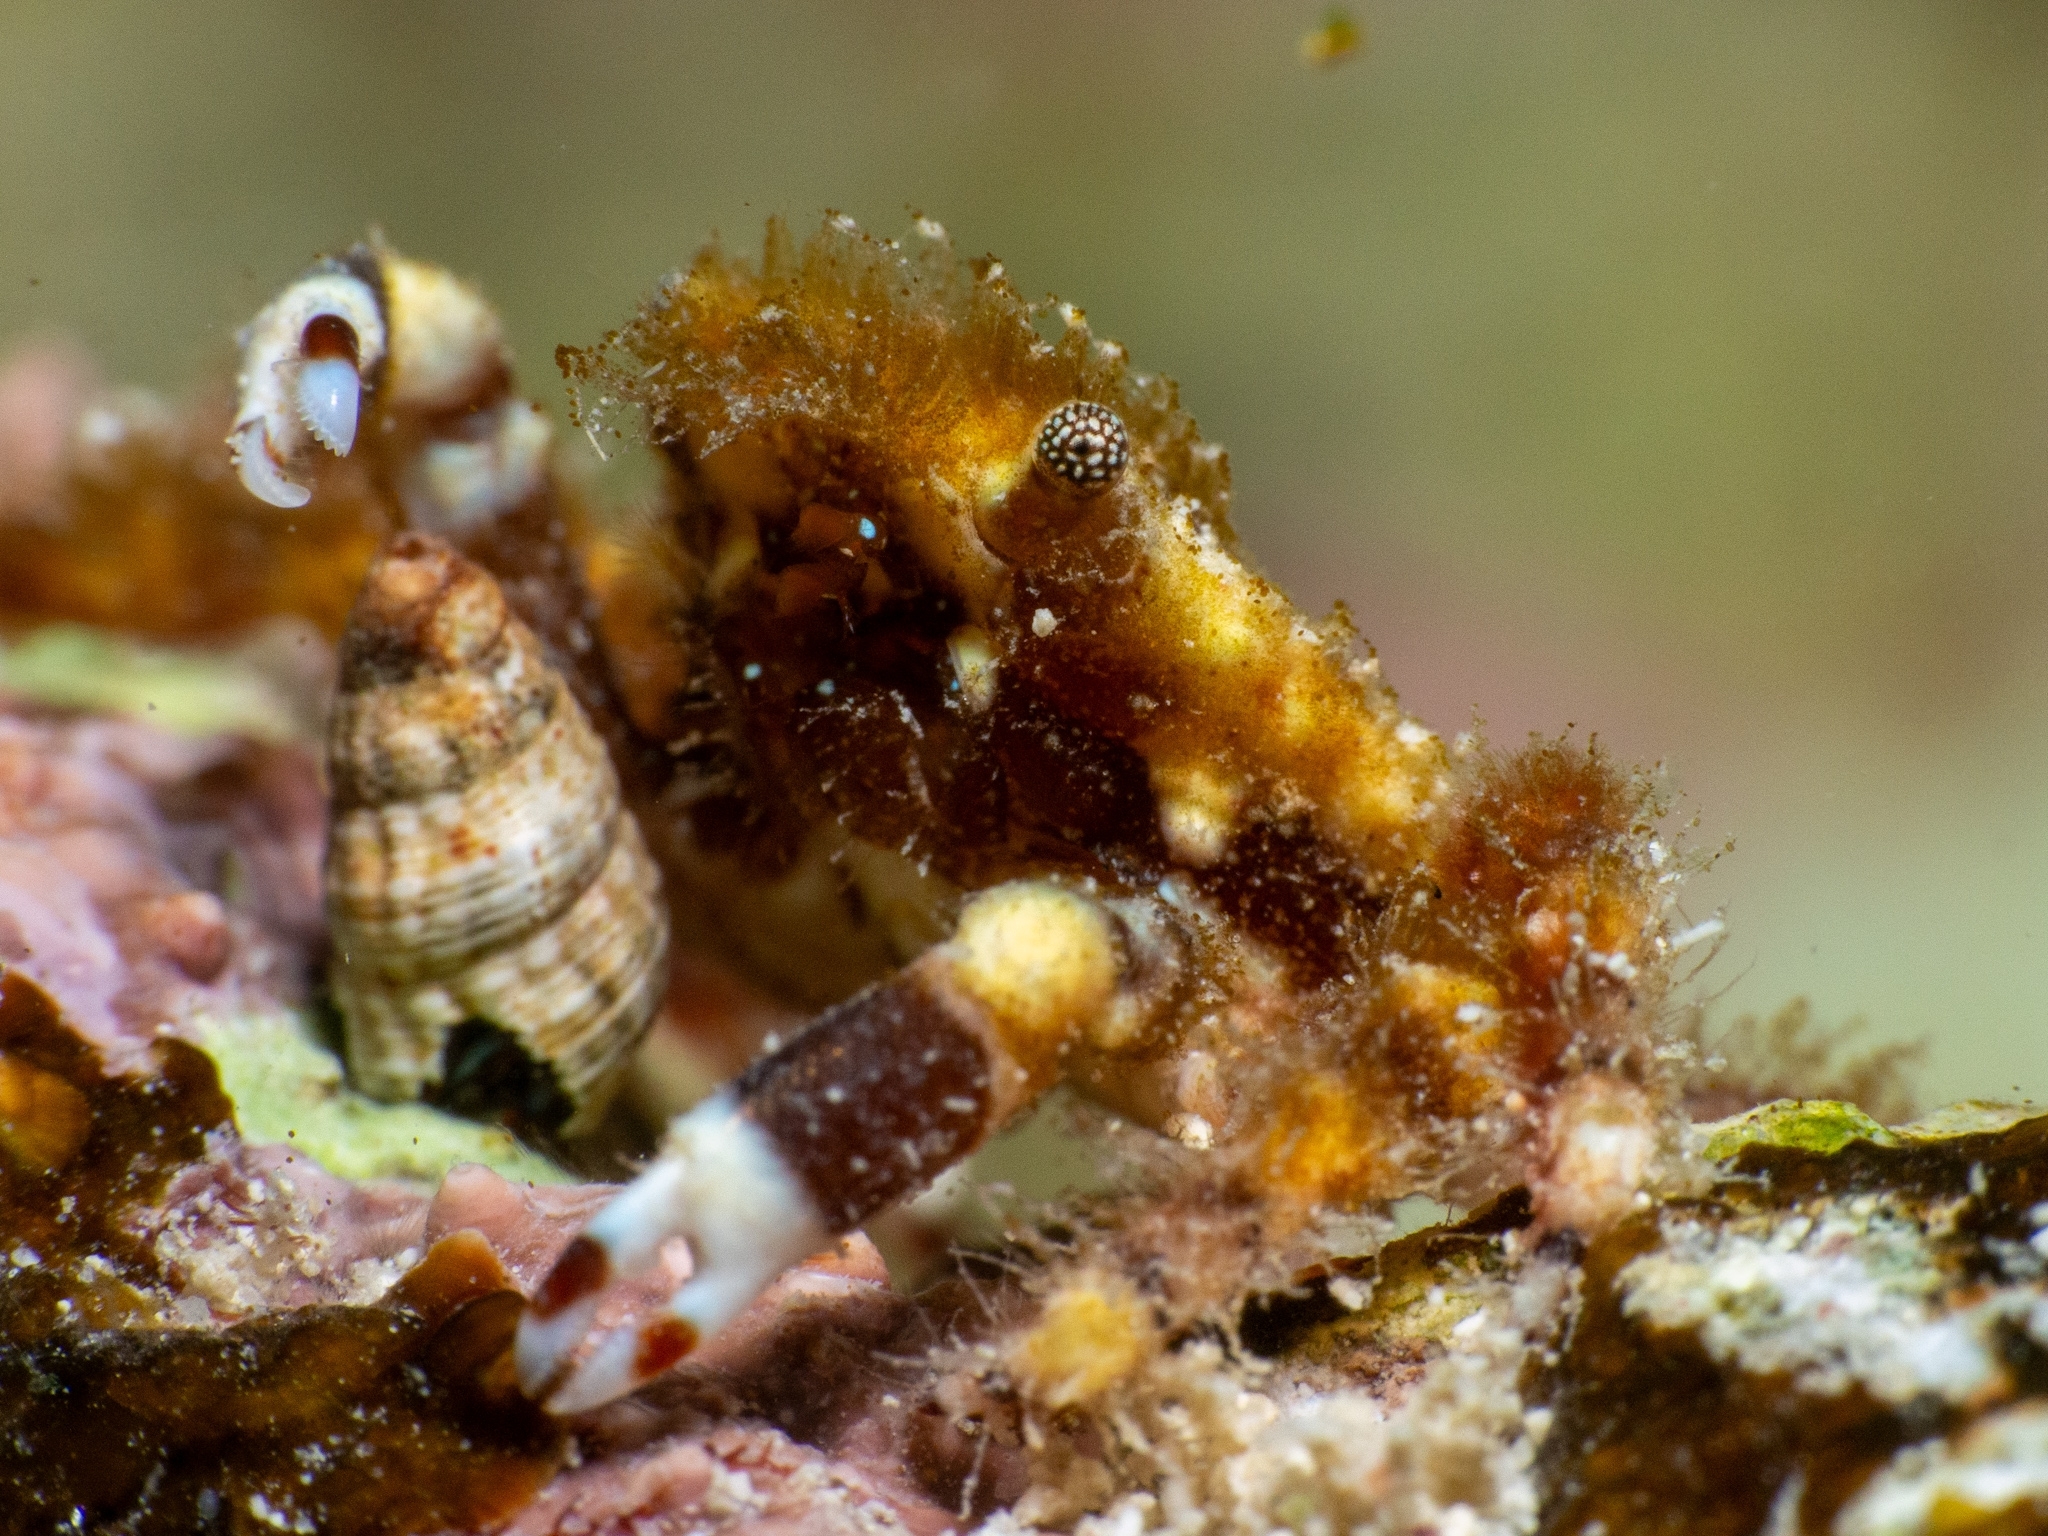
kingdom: Animalia
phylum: Arthropoda
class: Malacostraca
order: Decapoda
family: Mithracidae
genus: Mithraculus
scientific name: Mithraculus cinctimanus
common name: Banded clinging crab
